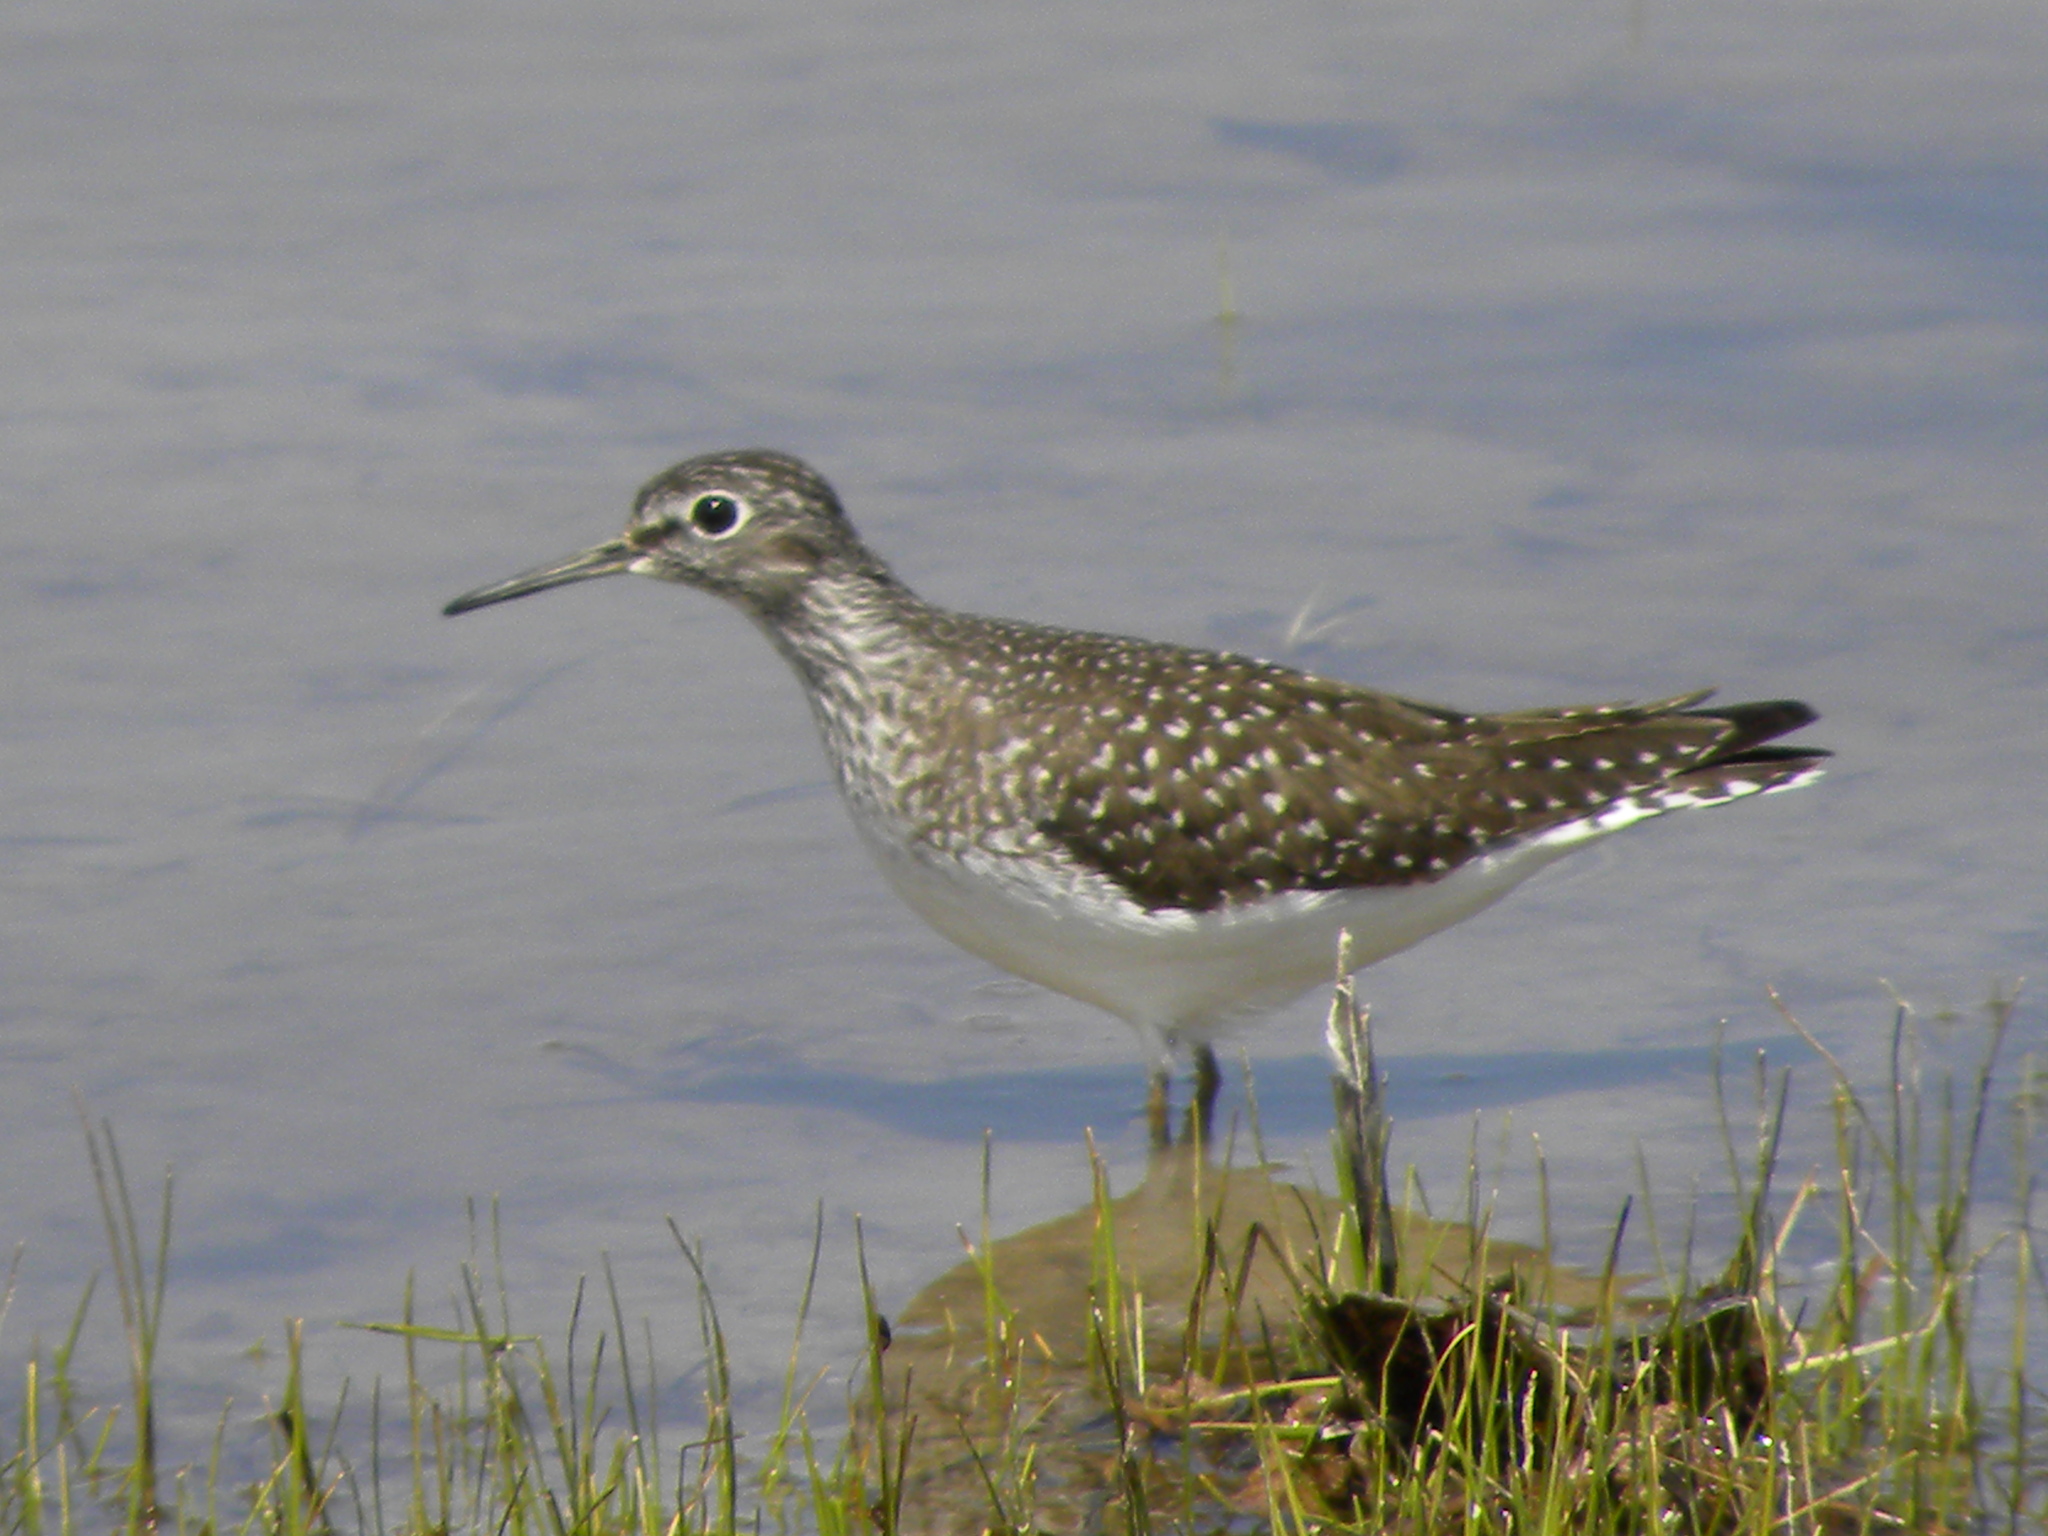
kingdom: Animalia
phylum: Chordata
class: Aves
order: Charadriiformes
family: Scolopacidae
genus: Tringa
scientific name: Tringa solitaria
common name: Solitary sandpiper
